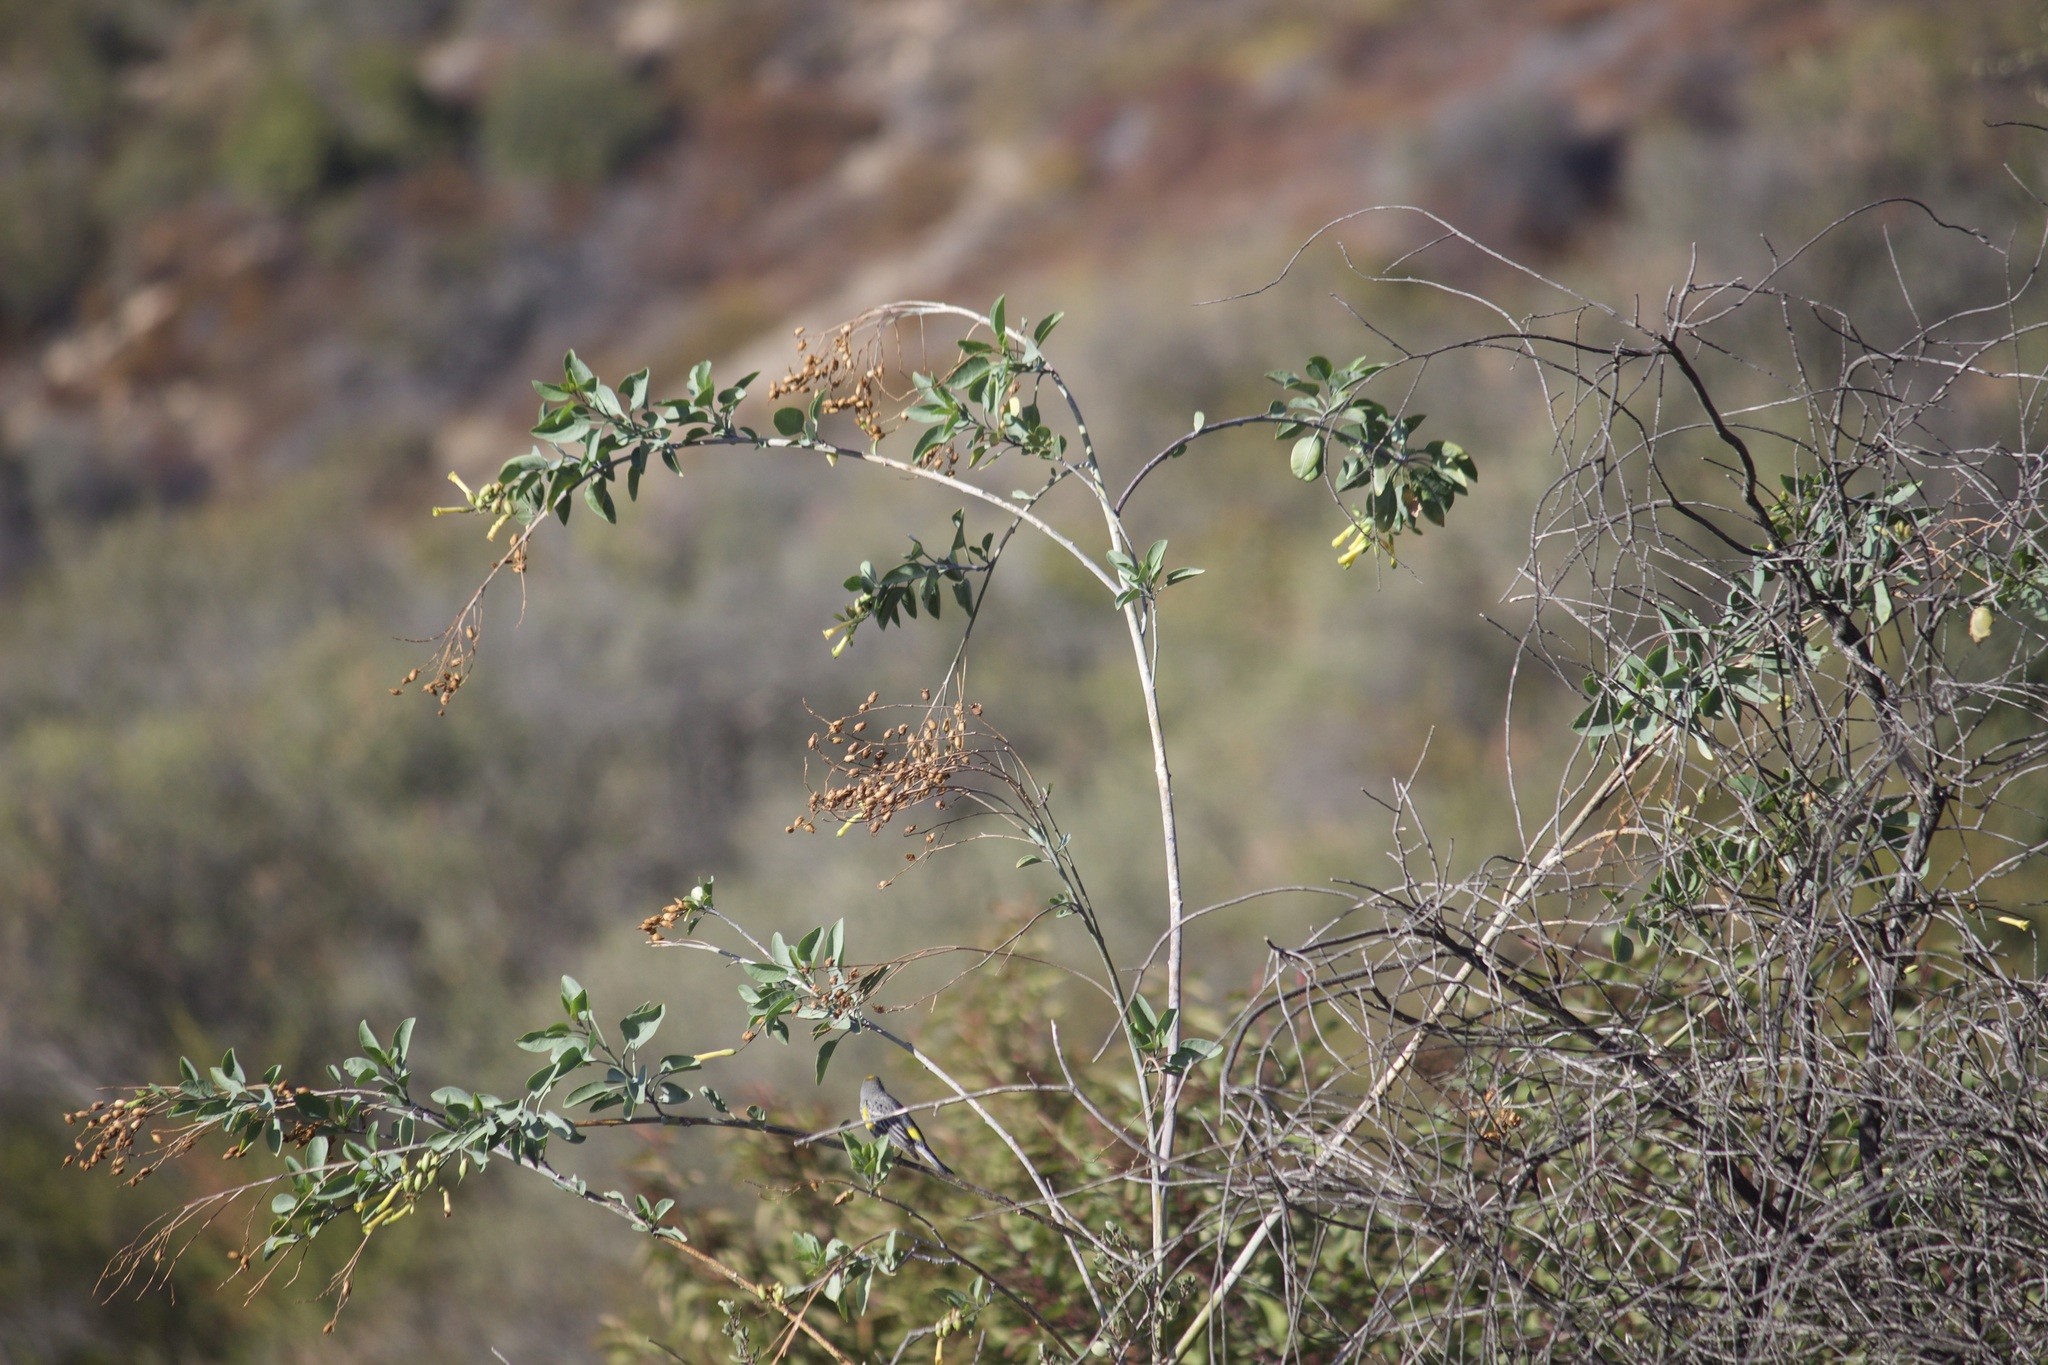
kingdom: Plantae
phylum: Tracheophyta
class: Magnoliopsida
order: Solanales
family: Solanaceae
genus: Nicotiana
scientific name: Nicotiana glauca
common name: Tree tobacco
